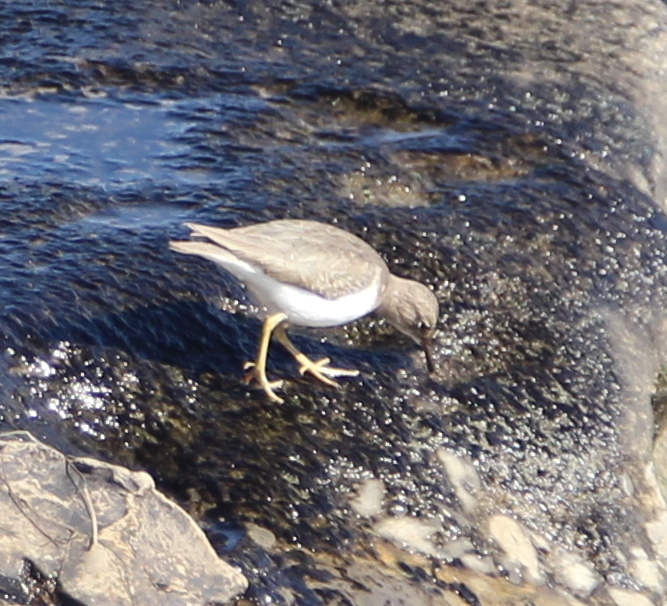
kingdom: Animalia
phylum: Chordata
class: Aves
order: Charadriiformes
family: Scolopacidae
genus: Actitis
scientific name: Actitis macularius
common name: Spotted sandpiper
